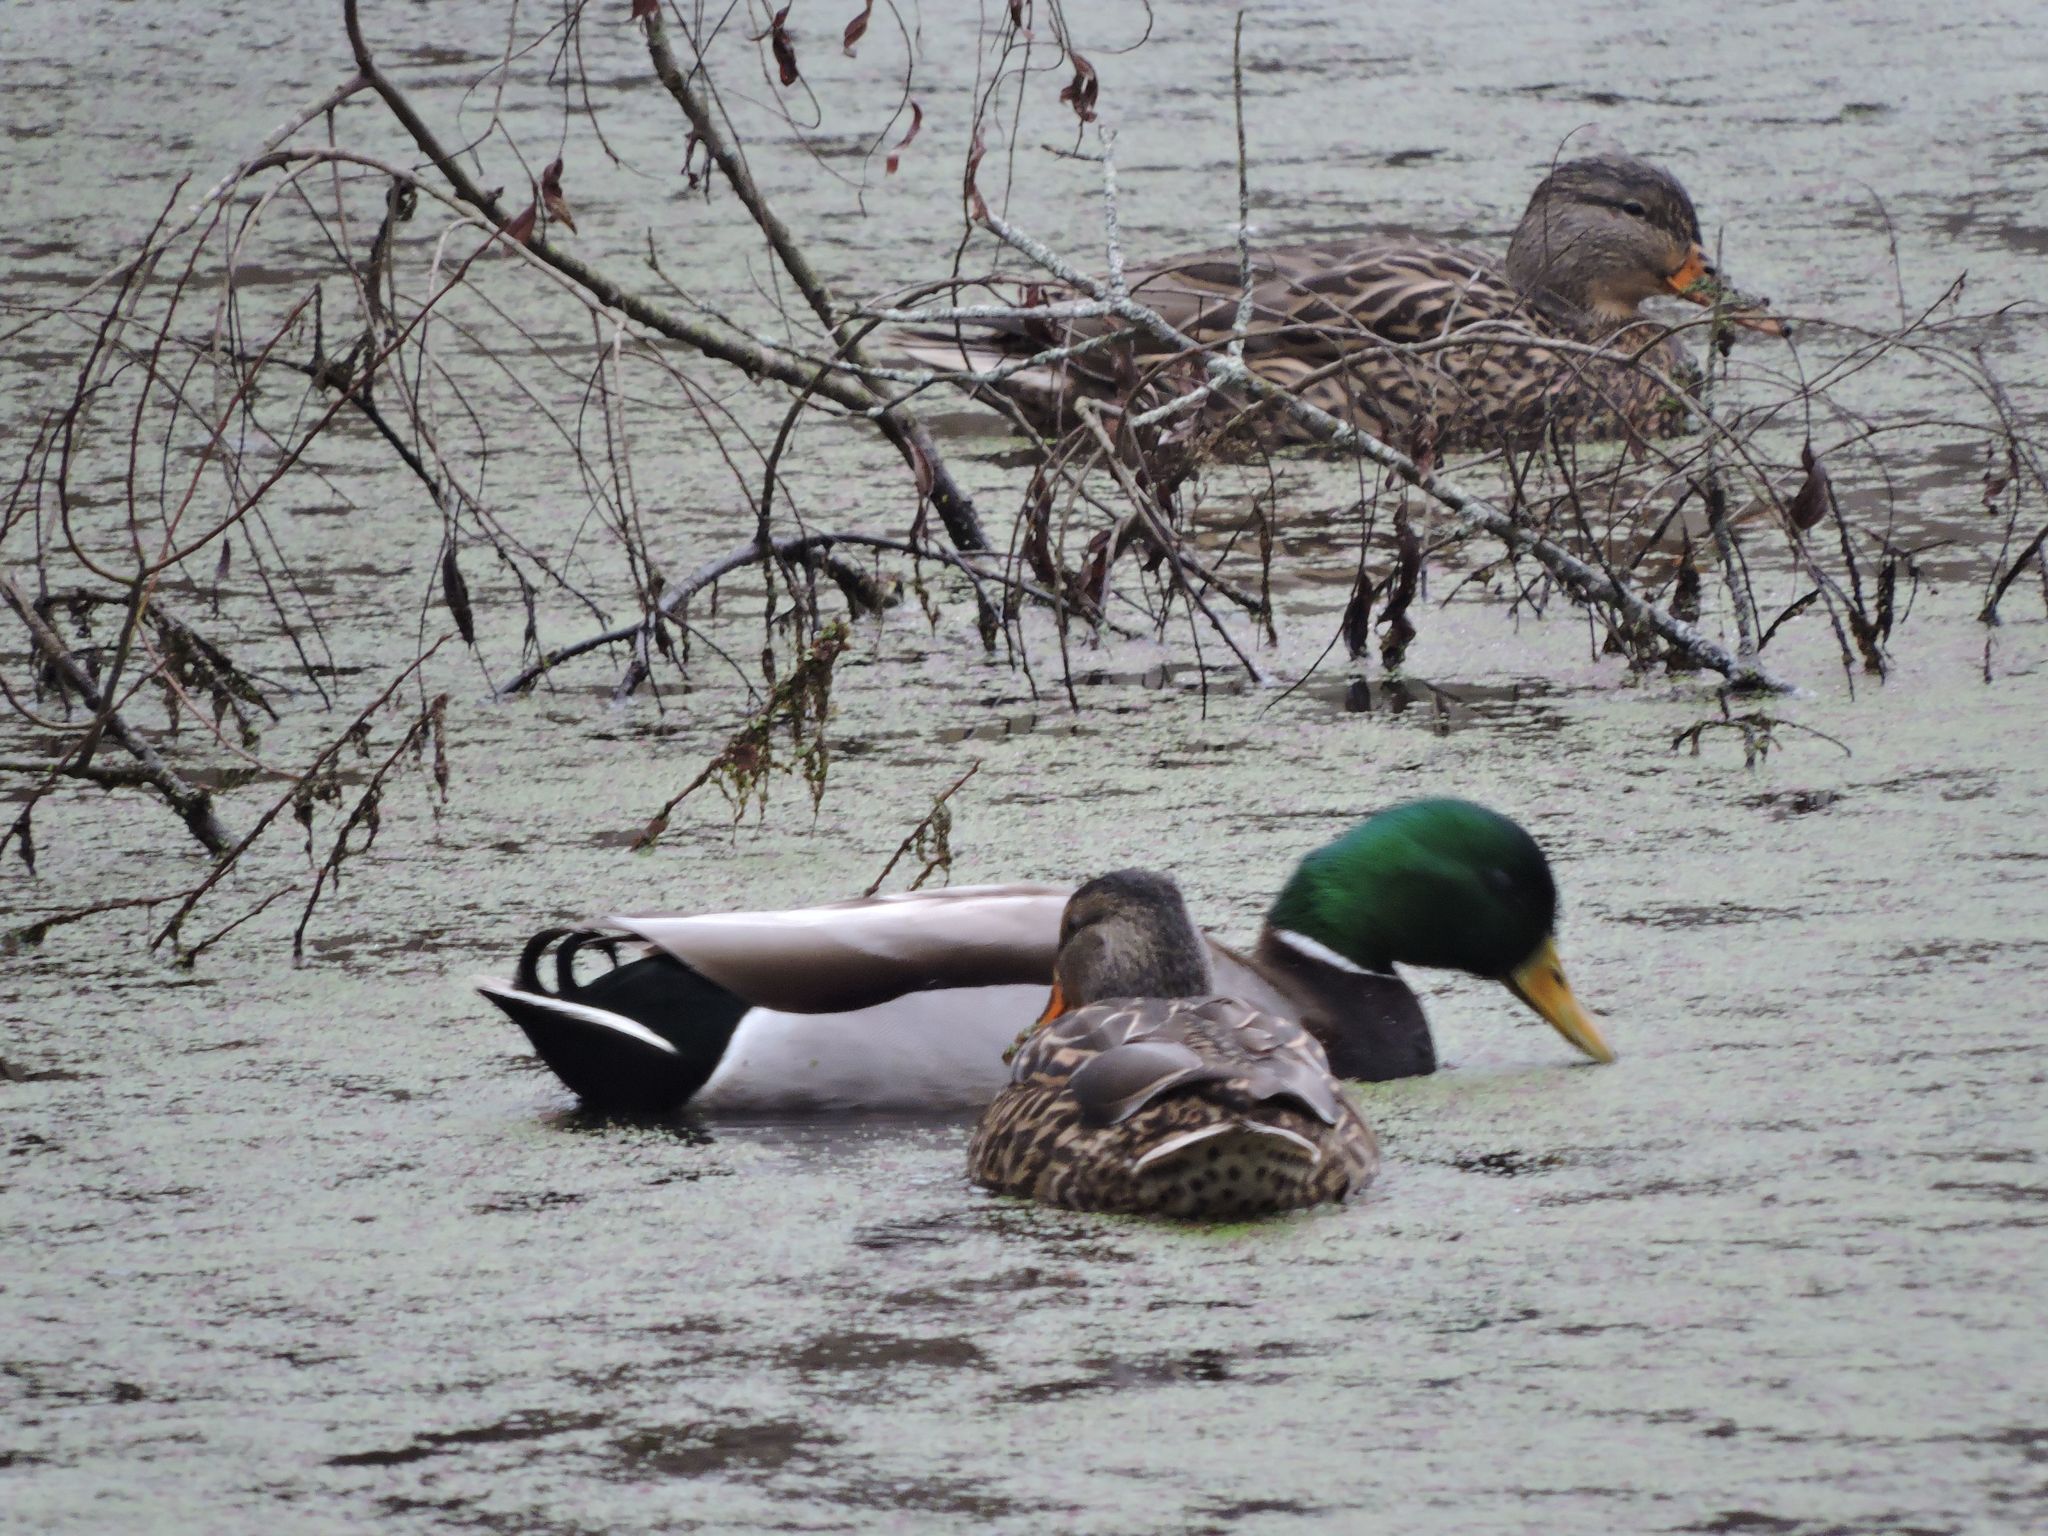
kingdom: Animalia
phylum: Chordata
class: Aves
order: Anseriformes
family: Anatidae
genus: Anas
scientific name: Anas platyrhynchos
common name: Mallard
